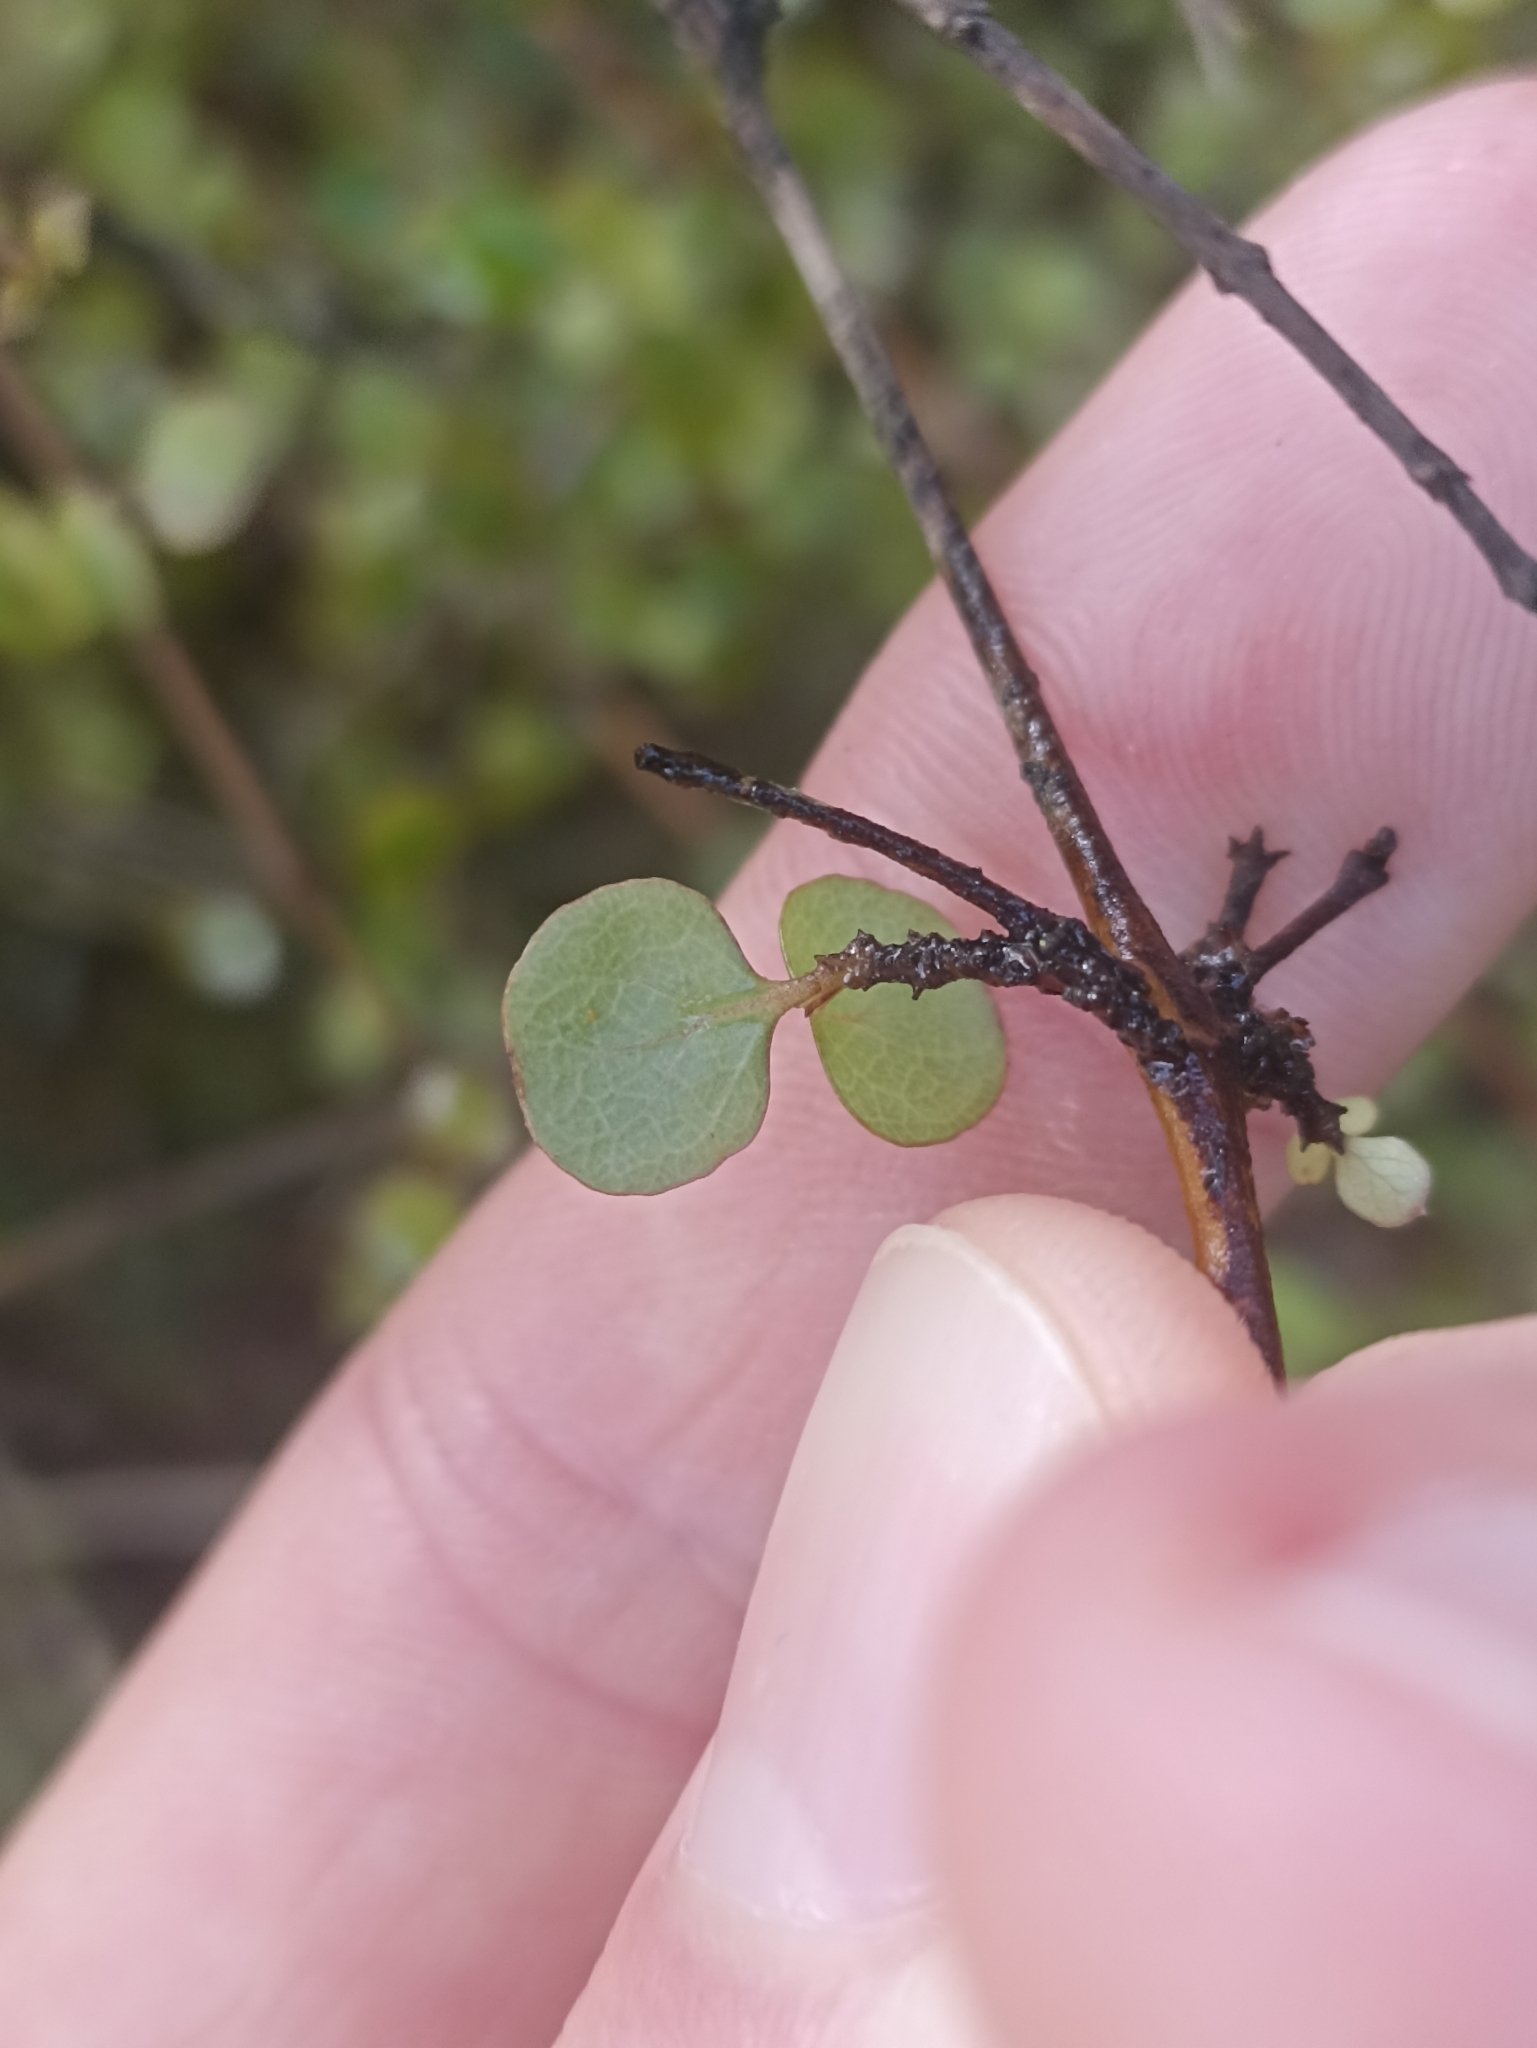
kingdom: Plantae
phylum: Tracheophyta
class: Magnoliopsida
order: Gentianales
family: Rubiaceae
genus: Coprosma
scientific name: Coprosma rhamnoides
